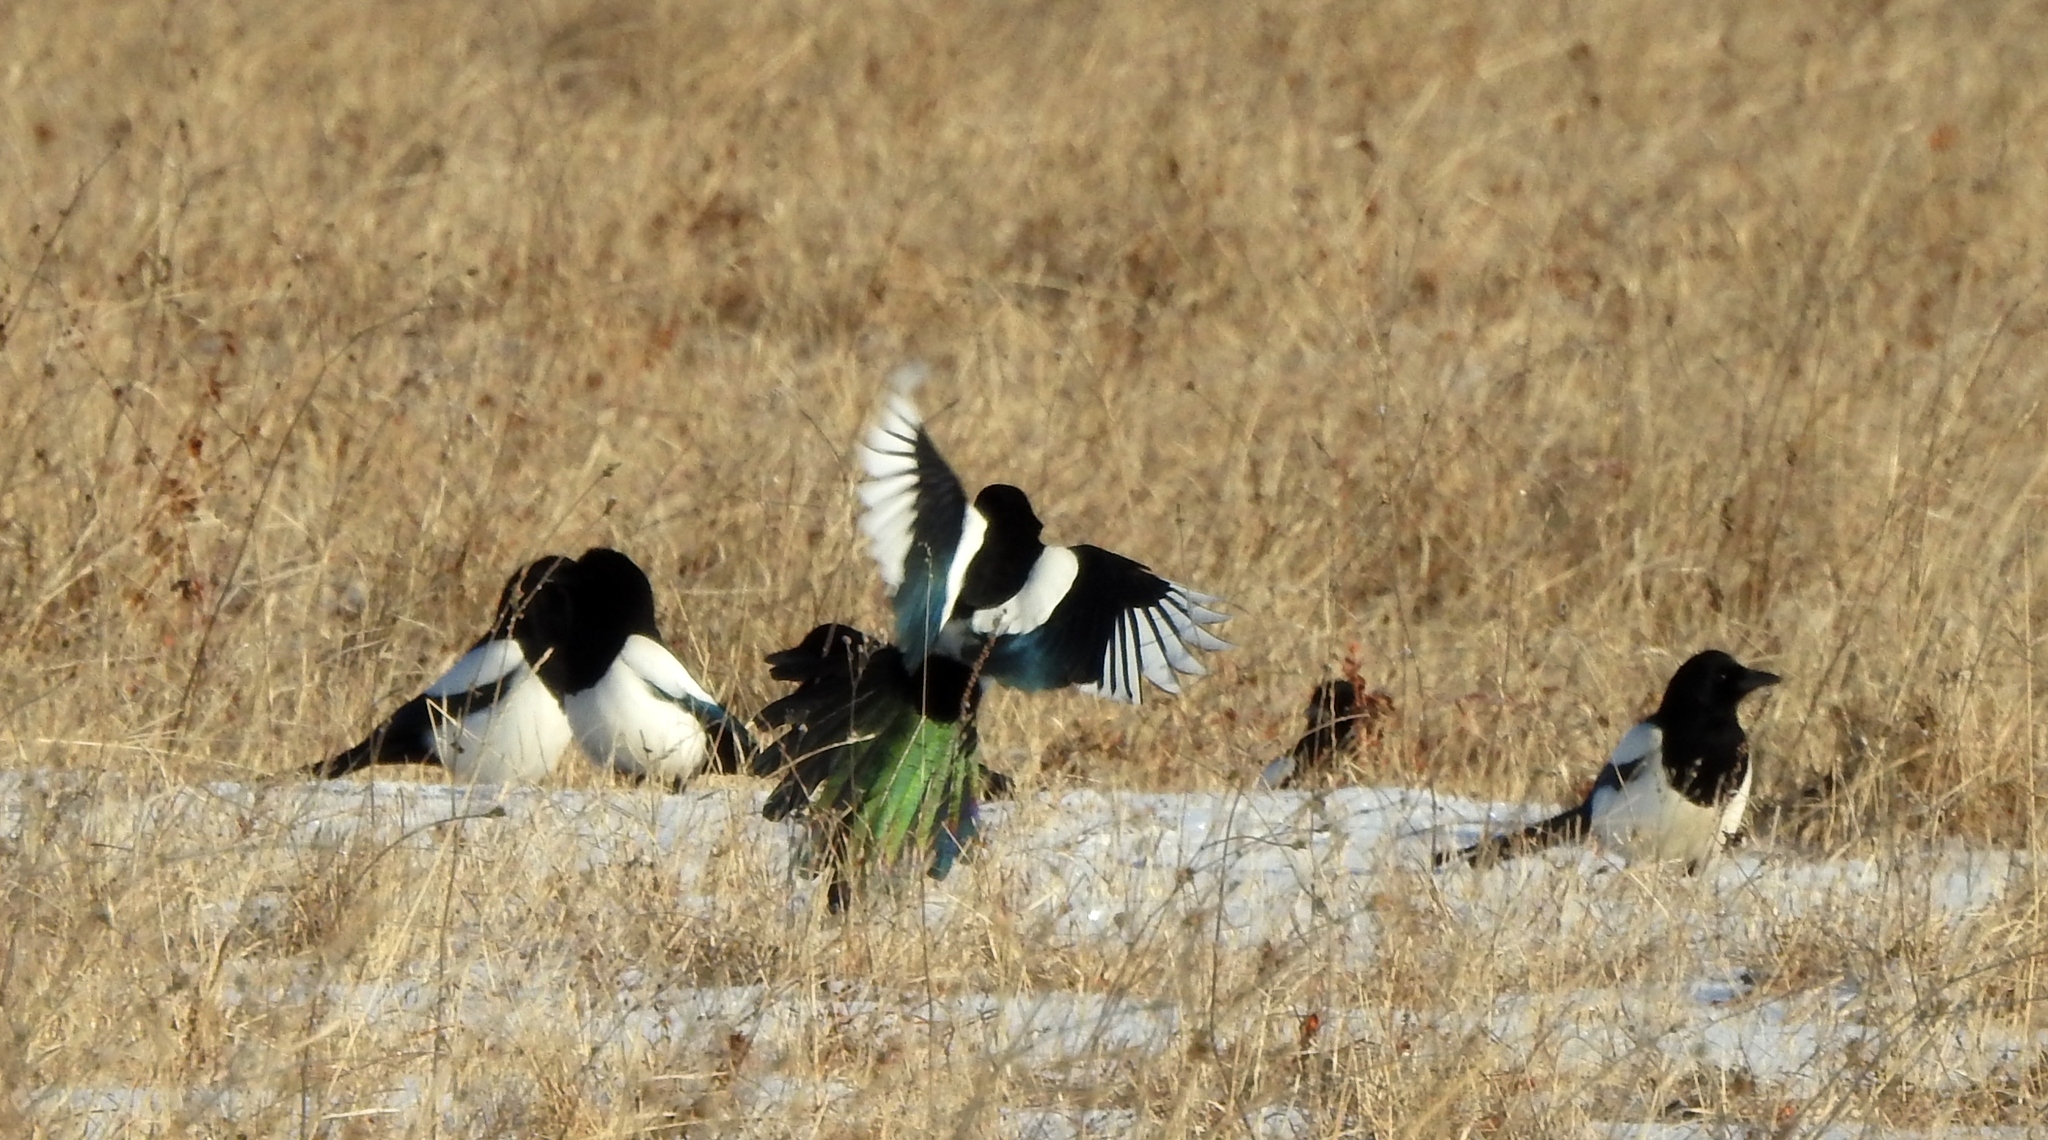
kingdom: Animalia
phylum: Chordata
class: Aves
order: Passeriformes
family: Corvidae
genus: Pica
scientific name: Pica pica
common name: Eurasian magpie
